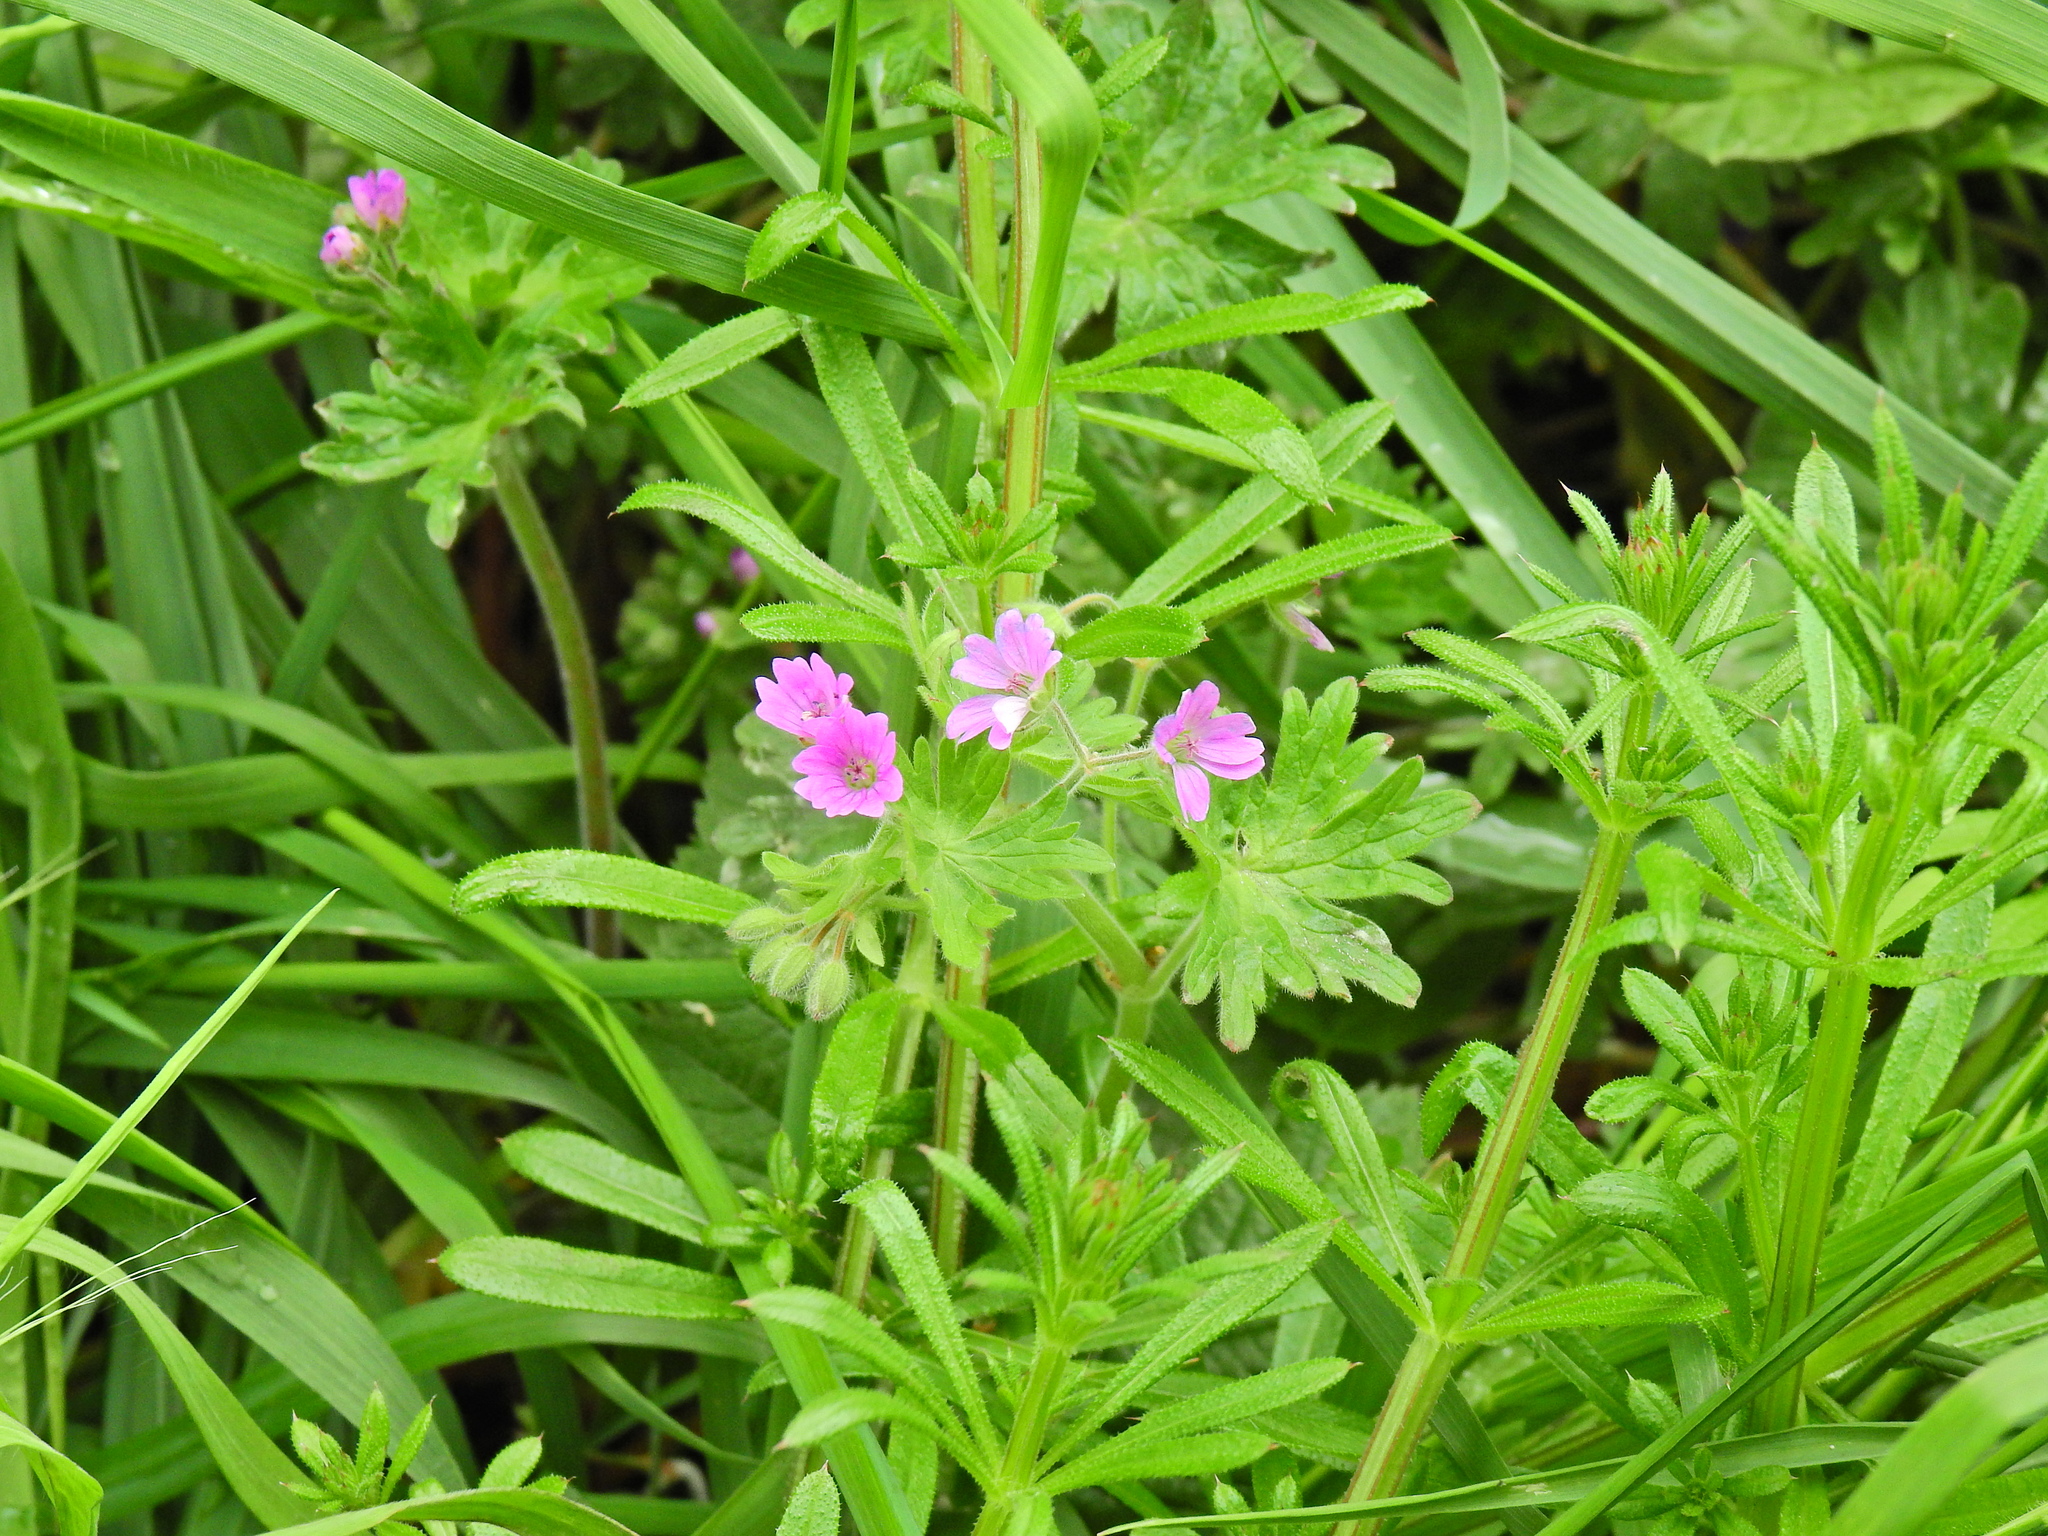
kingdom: Plantae
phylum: Tracheophyta
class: Magnoliopsida
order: Geraniales
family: Geraniaceae
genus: Geranium
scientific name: Geranium molle
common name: Dove's-foot crane's-bill
